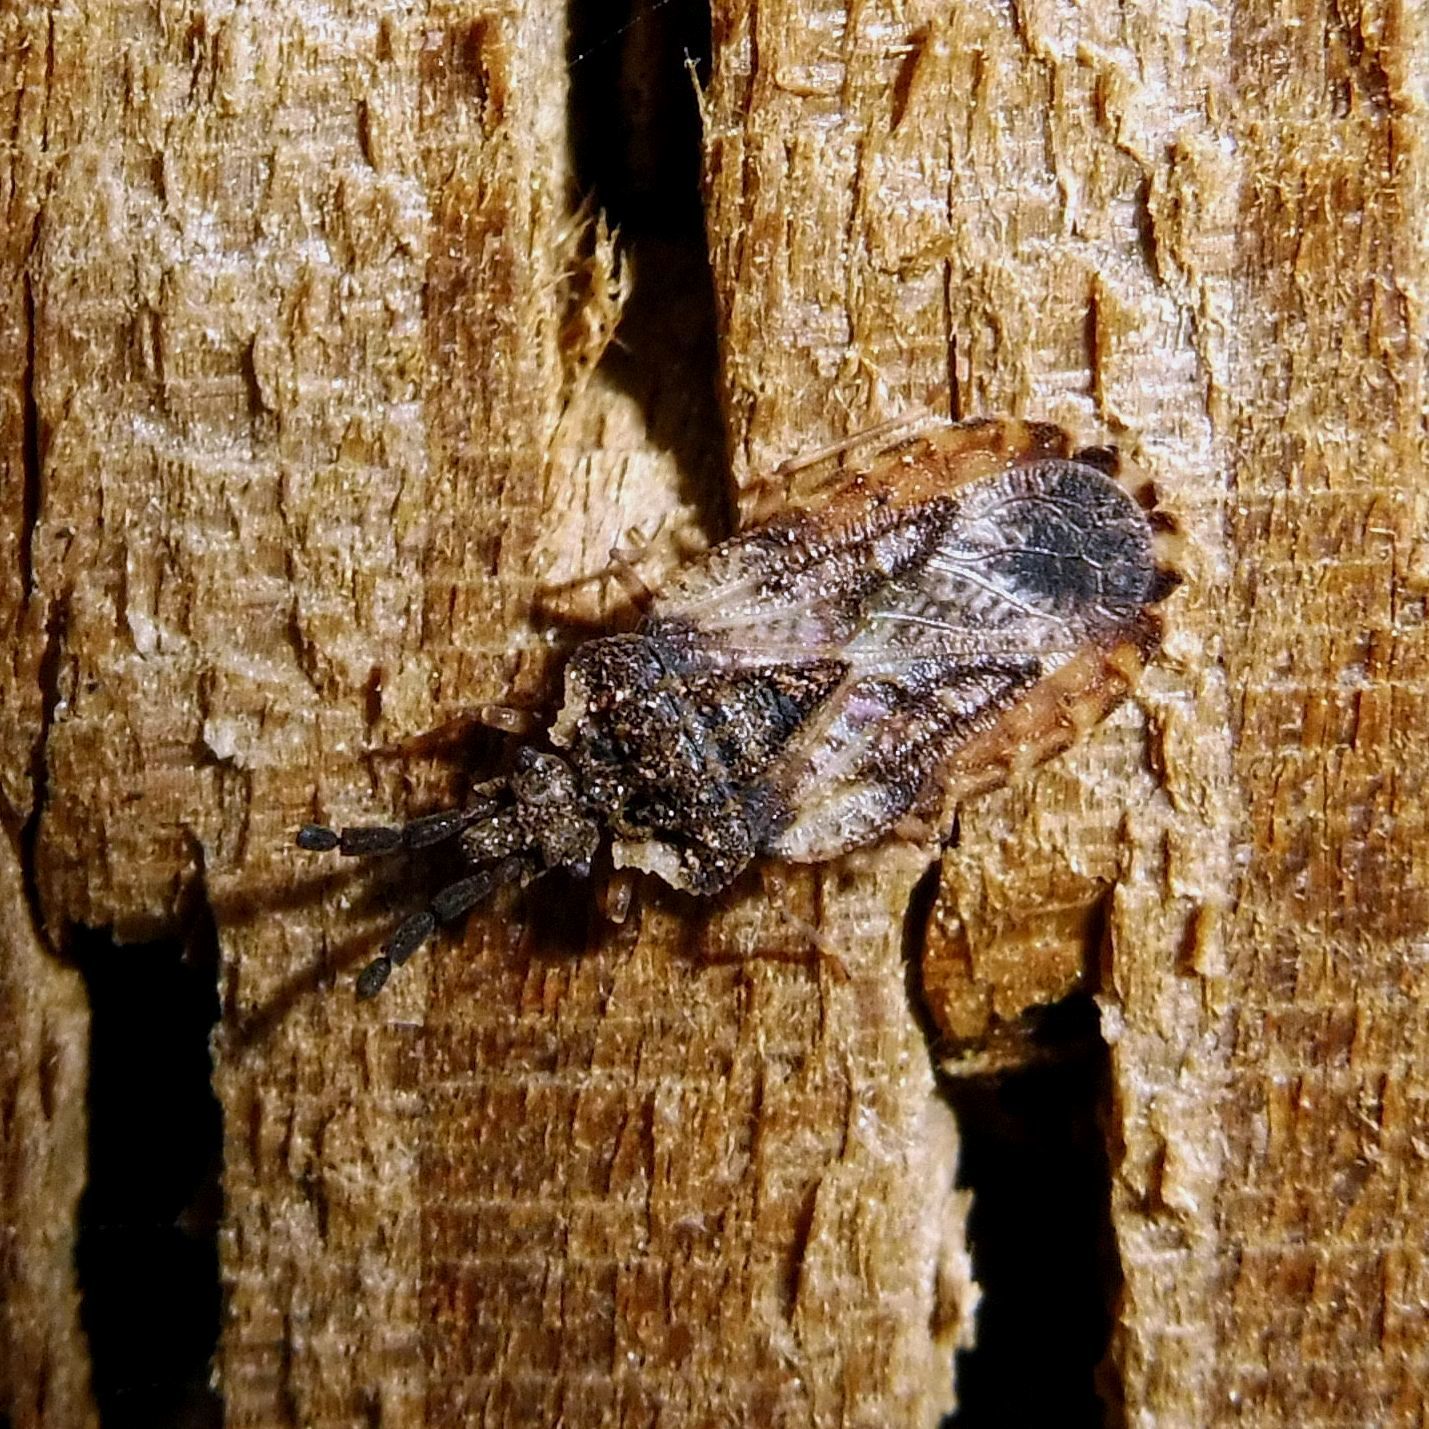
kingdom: Animalia
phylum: Arthropoda
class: Insecta
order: Hemiptera
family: Aradidae
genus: Aradus
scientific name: Aradus depressus
